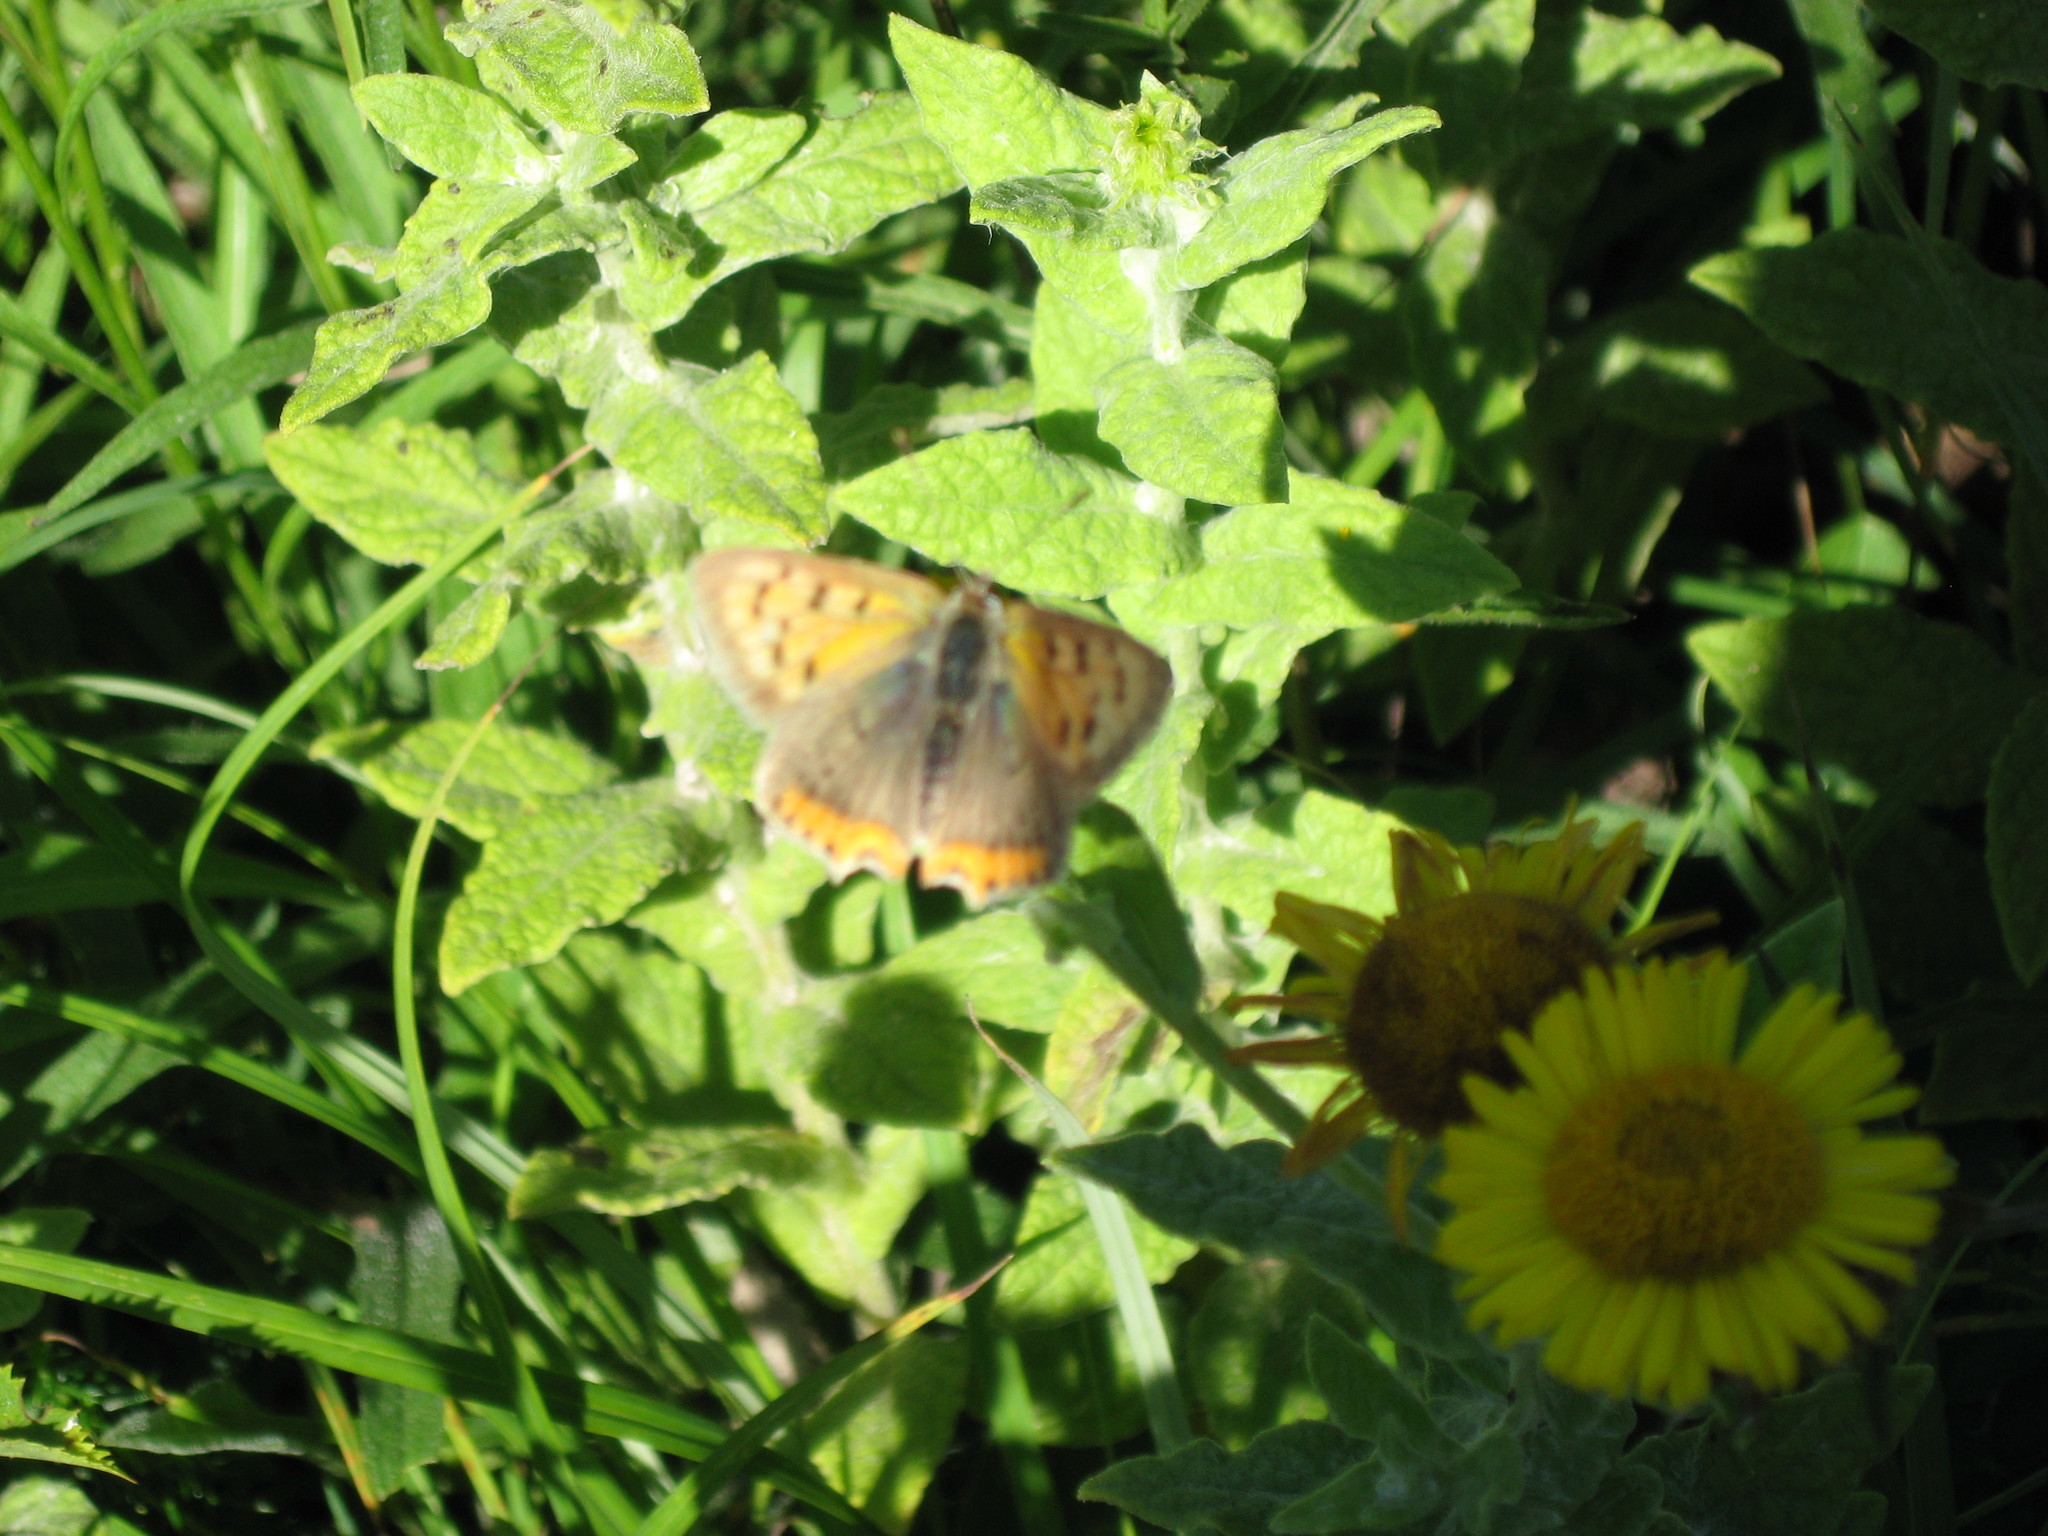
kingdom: Animalia
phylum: Arthropoda
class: Insecta
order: Lepidoptera
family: Lycaenidae
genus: Lycaena
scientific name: Lycaena phlaeas
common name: Small copper
